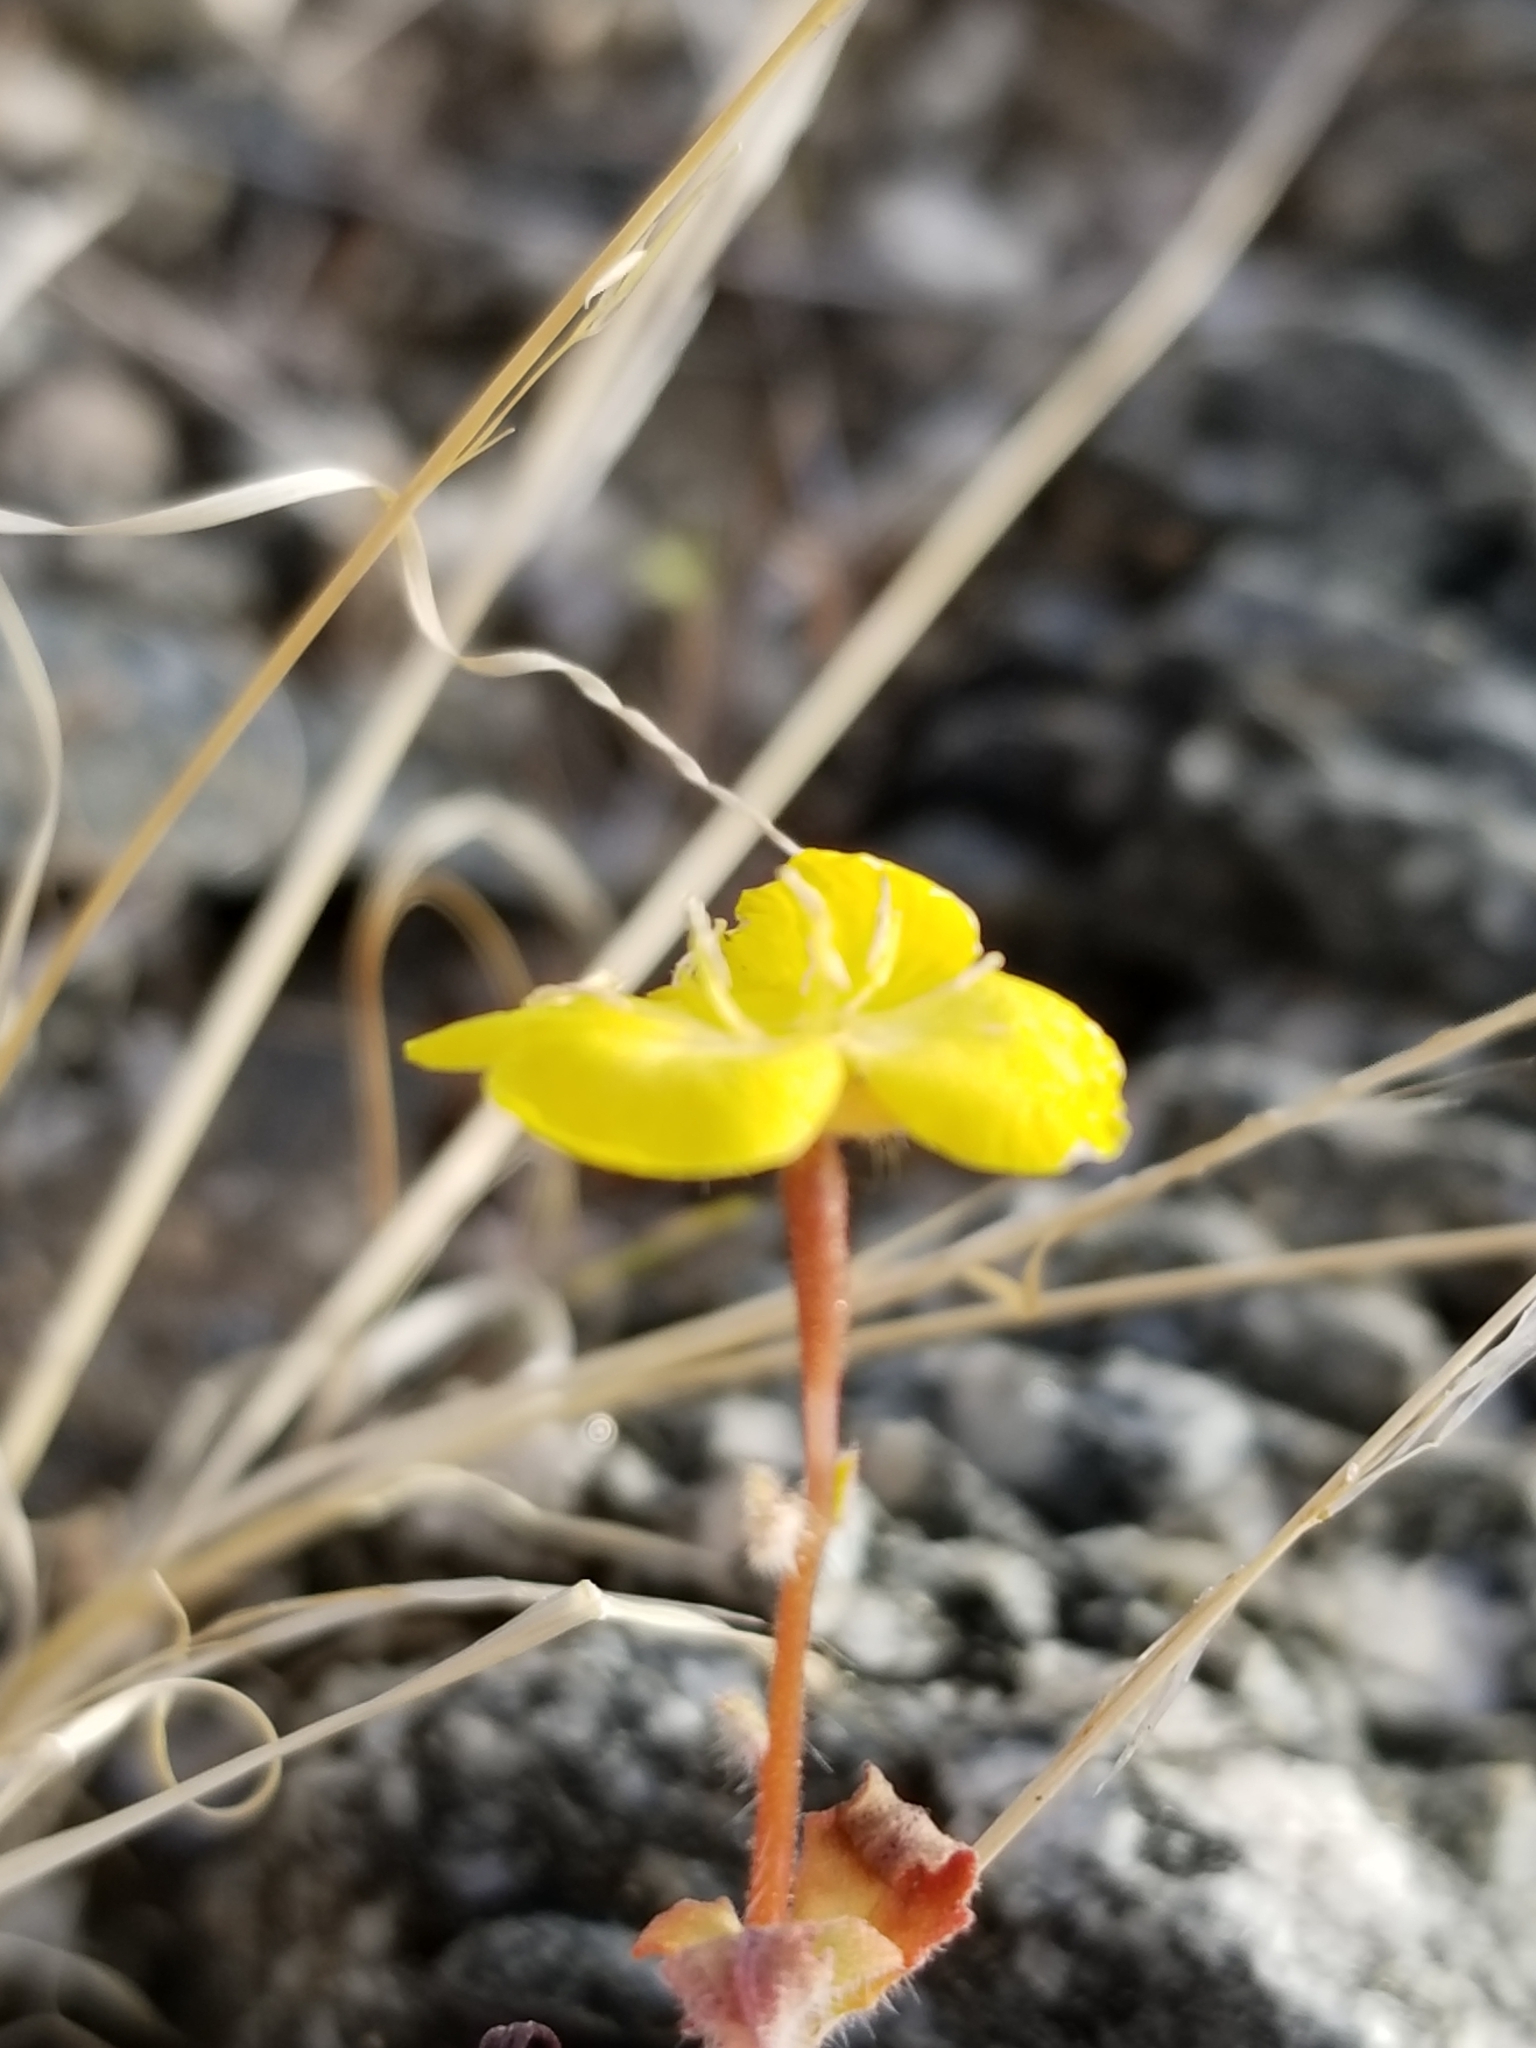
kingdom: Plantae
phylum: Tracheophyta
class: Magnoliopsida
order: Myrtales
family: Onagraceae
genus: Chylismia
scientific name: Chylismia brevipes
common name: Yellow cups
